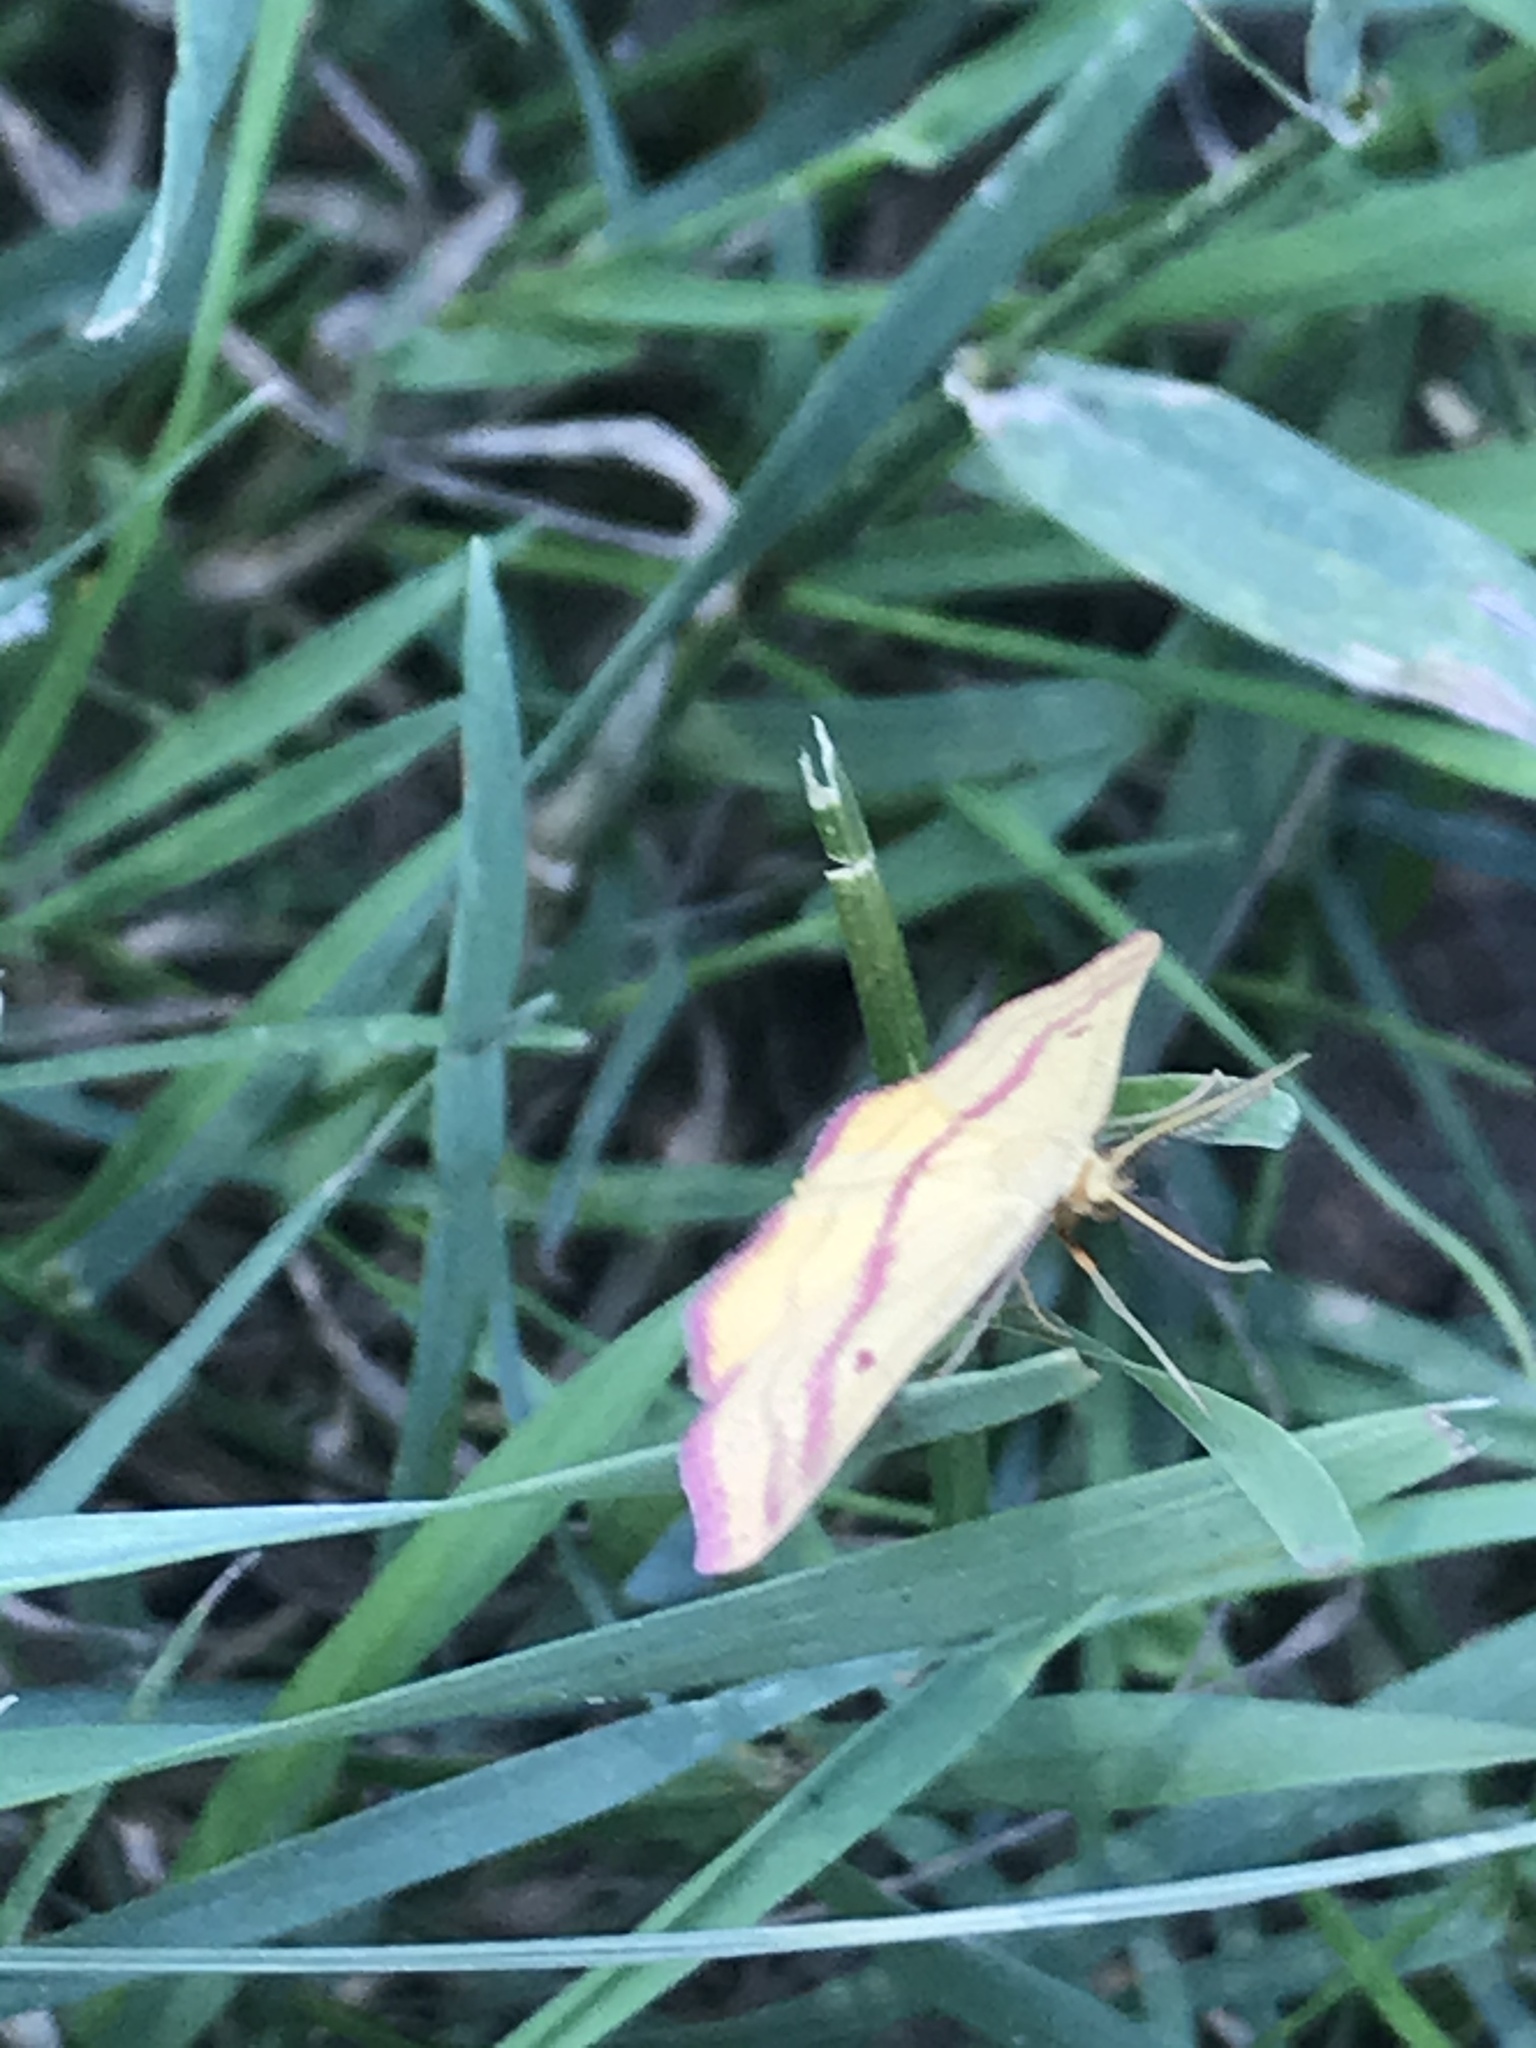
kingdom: Animalia
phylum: Arthropoda
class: Insecta
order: Lepidoptera
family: Geometridae
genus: Haematopis
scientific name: Haematopis grataria
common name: Chickweed geometer
